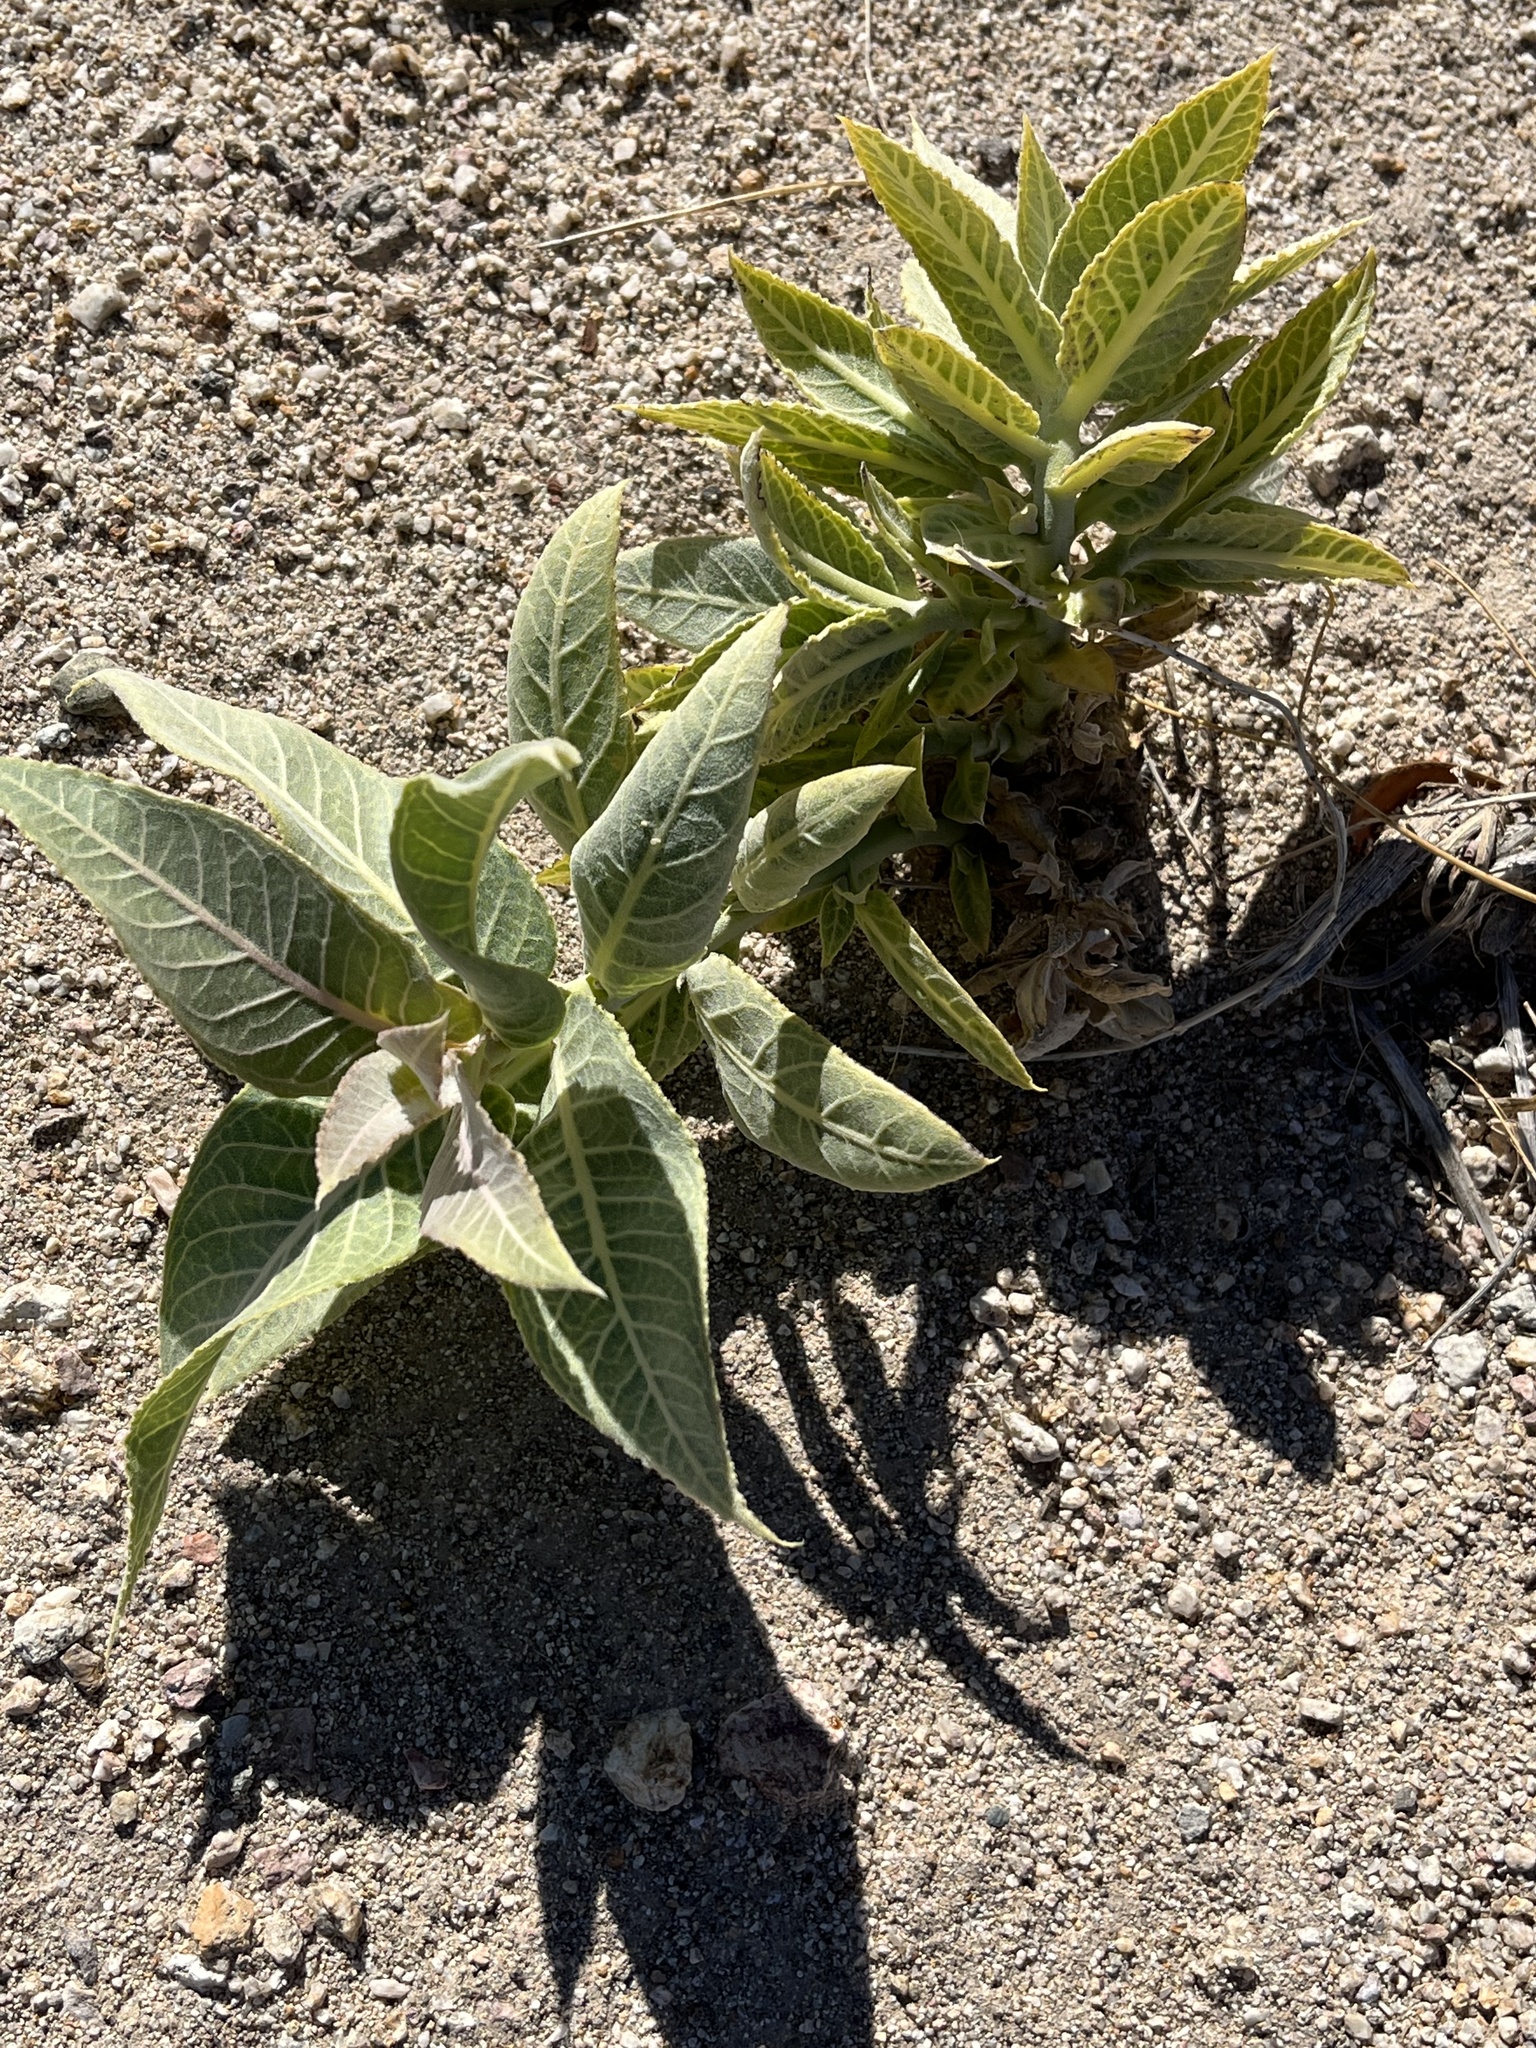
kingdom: Plantae
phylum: Tracheophyta
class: Magnoliopsida
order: Gentianales
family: Apocynaceae
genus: Asclepias
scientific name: Asclepias erosa
